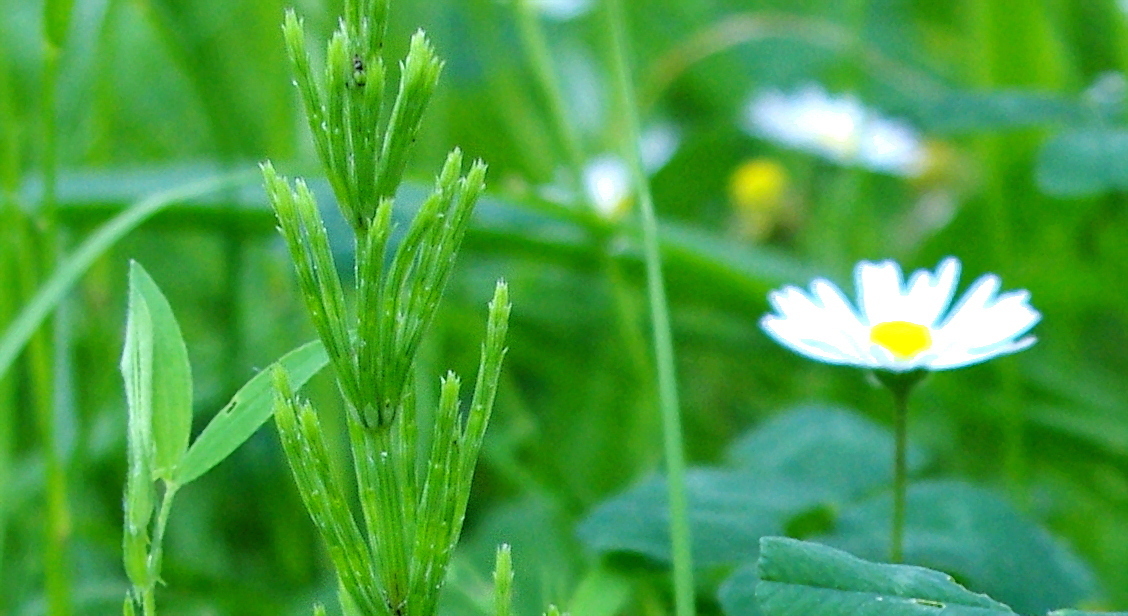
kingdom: Plantae
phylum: Tracheophyta
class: Polypodiopsida
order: Equisetales
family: Equisetaceae
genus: Equisetum
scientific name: Equisetum arvense
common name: Field horsetail
